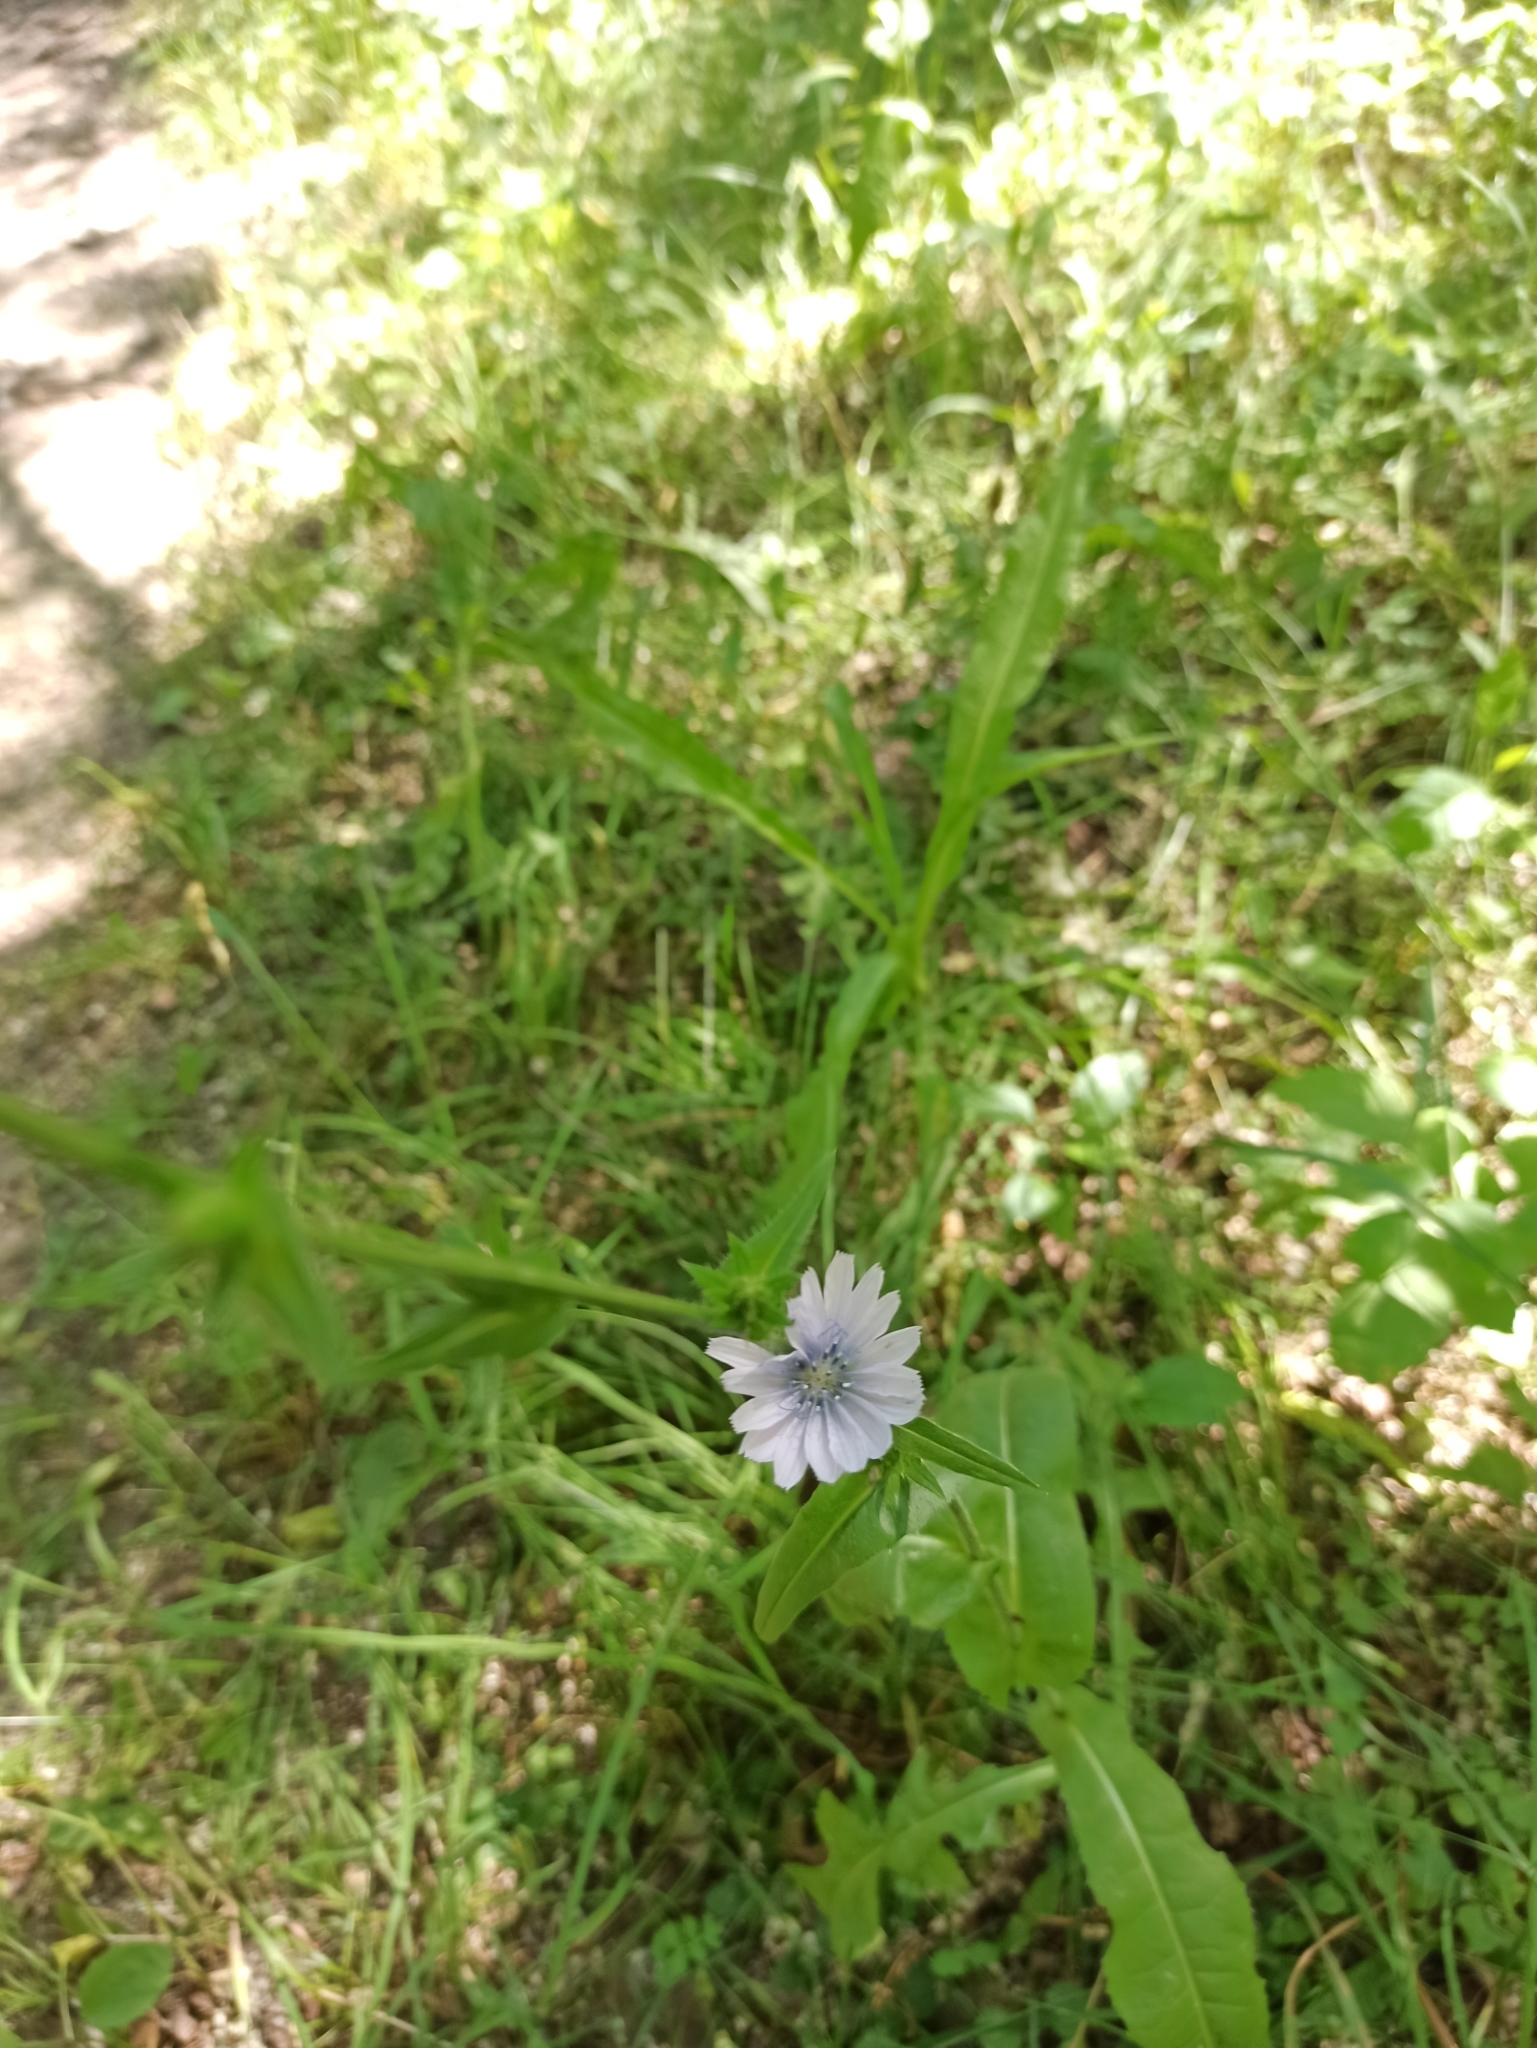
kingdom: Plantae
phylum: Tracheophyta
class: Magnoliopsida
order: Asterales
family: Asteraceae
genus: Cichorium
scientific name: Cichorium intybus
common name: Chicory
